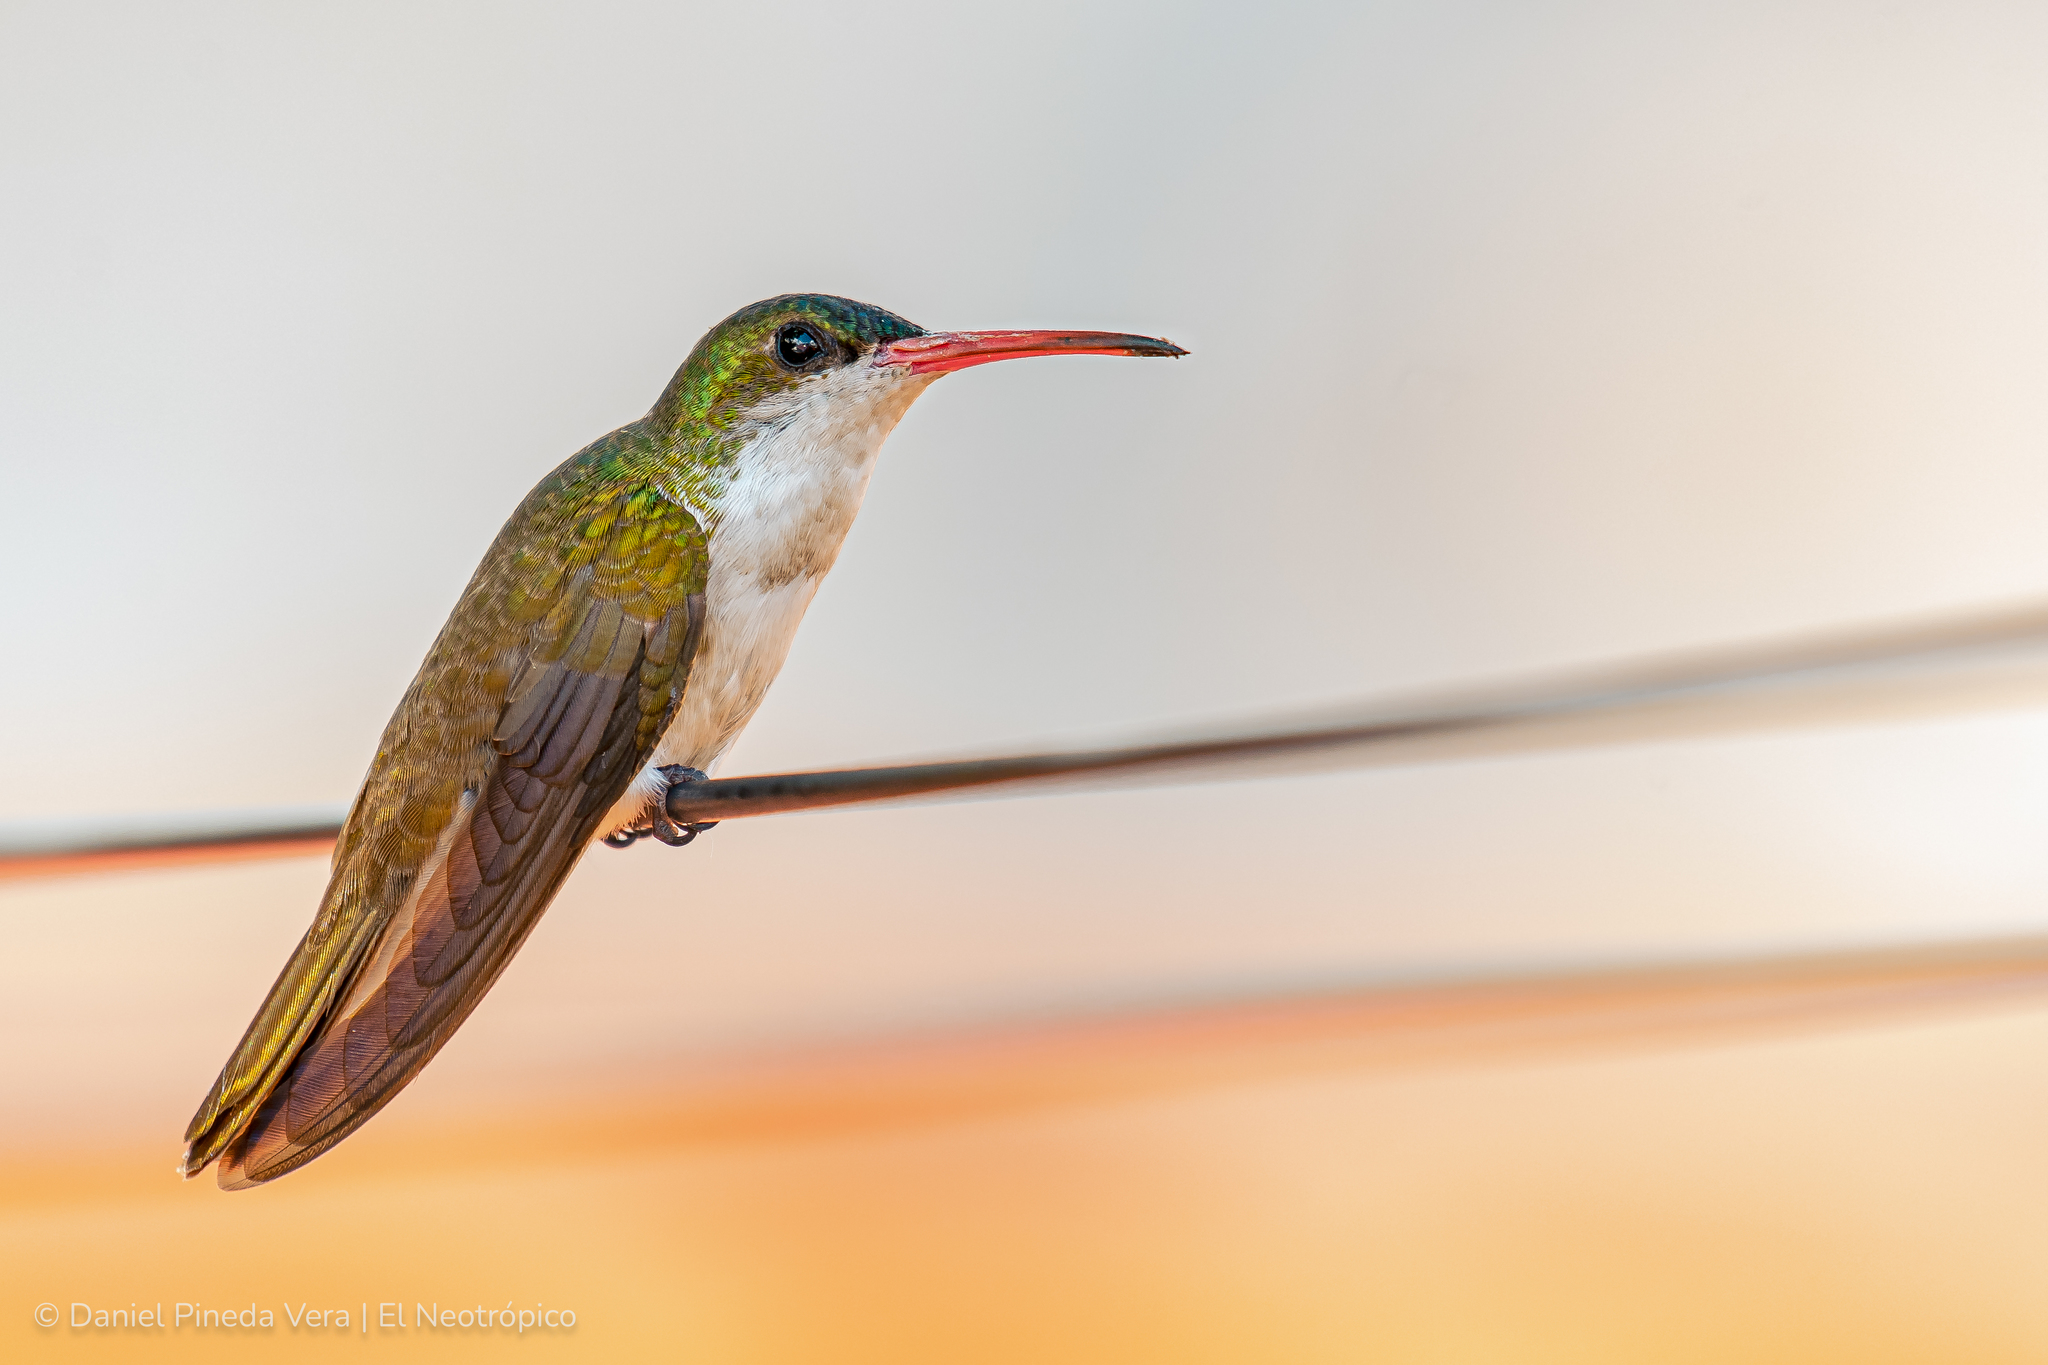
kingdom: Animalia
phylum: Chordata
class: Aves
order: Apodiformes
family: Trochilidae
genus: Leucolia
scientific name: Leucolia viridifrons
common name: Green-fronted hummingbird
